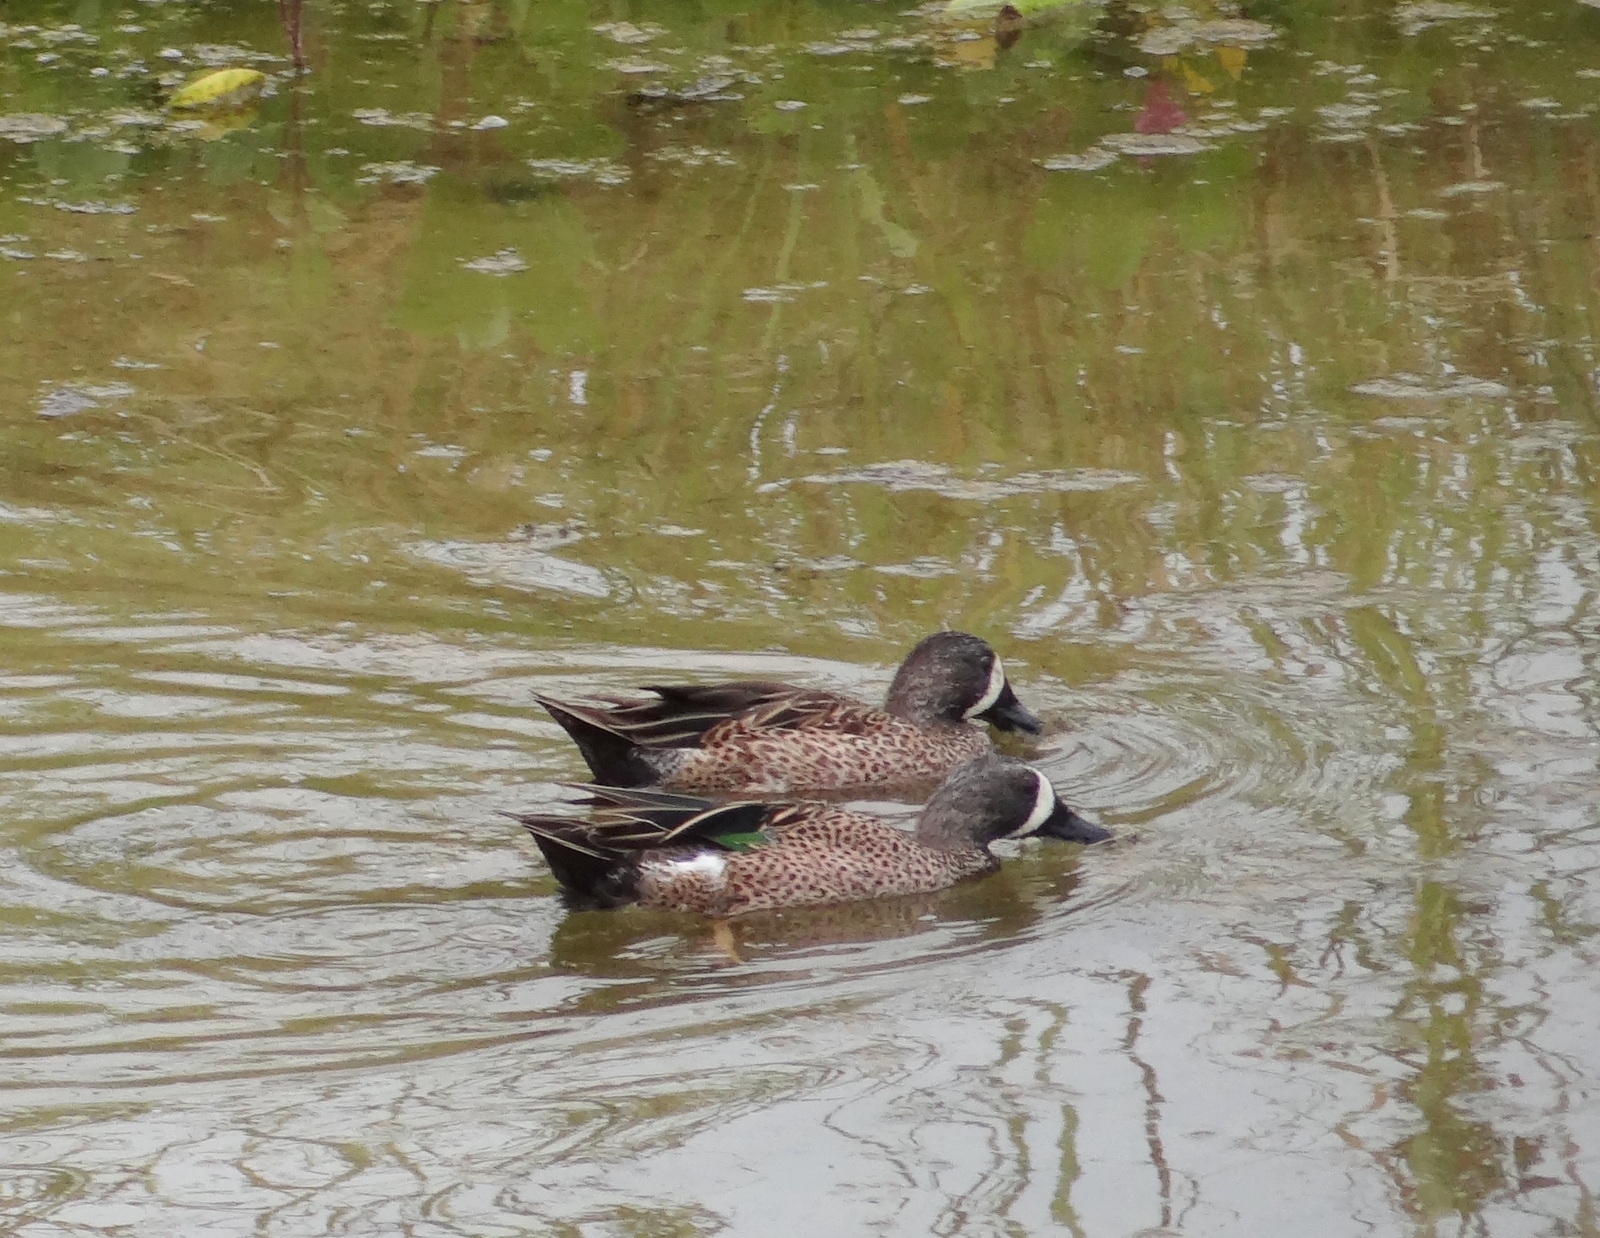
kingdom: Animalia
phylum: Chordata
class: Aves
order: Anseriformes
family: Anatidae
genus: Spatula
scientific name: Spatula discors
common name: Blue-winged teal
